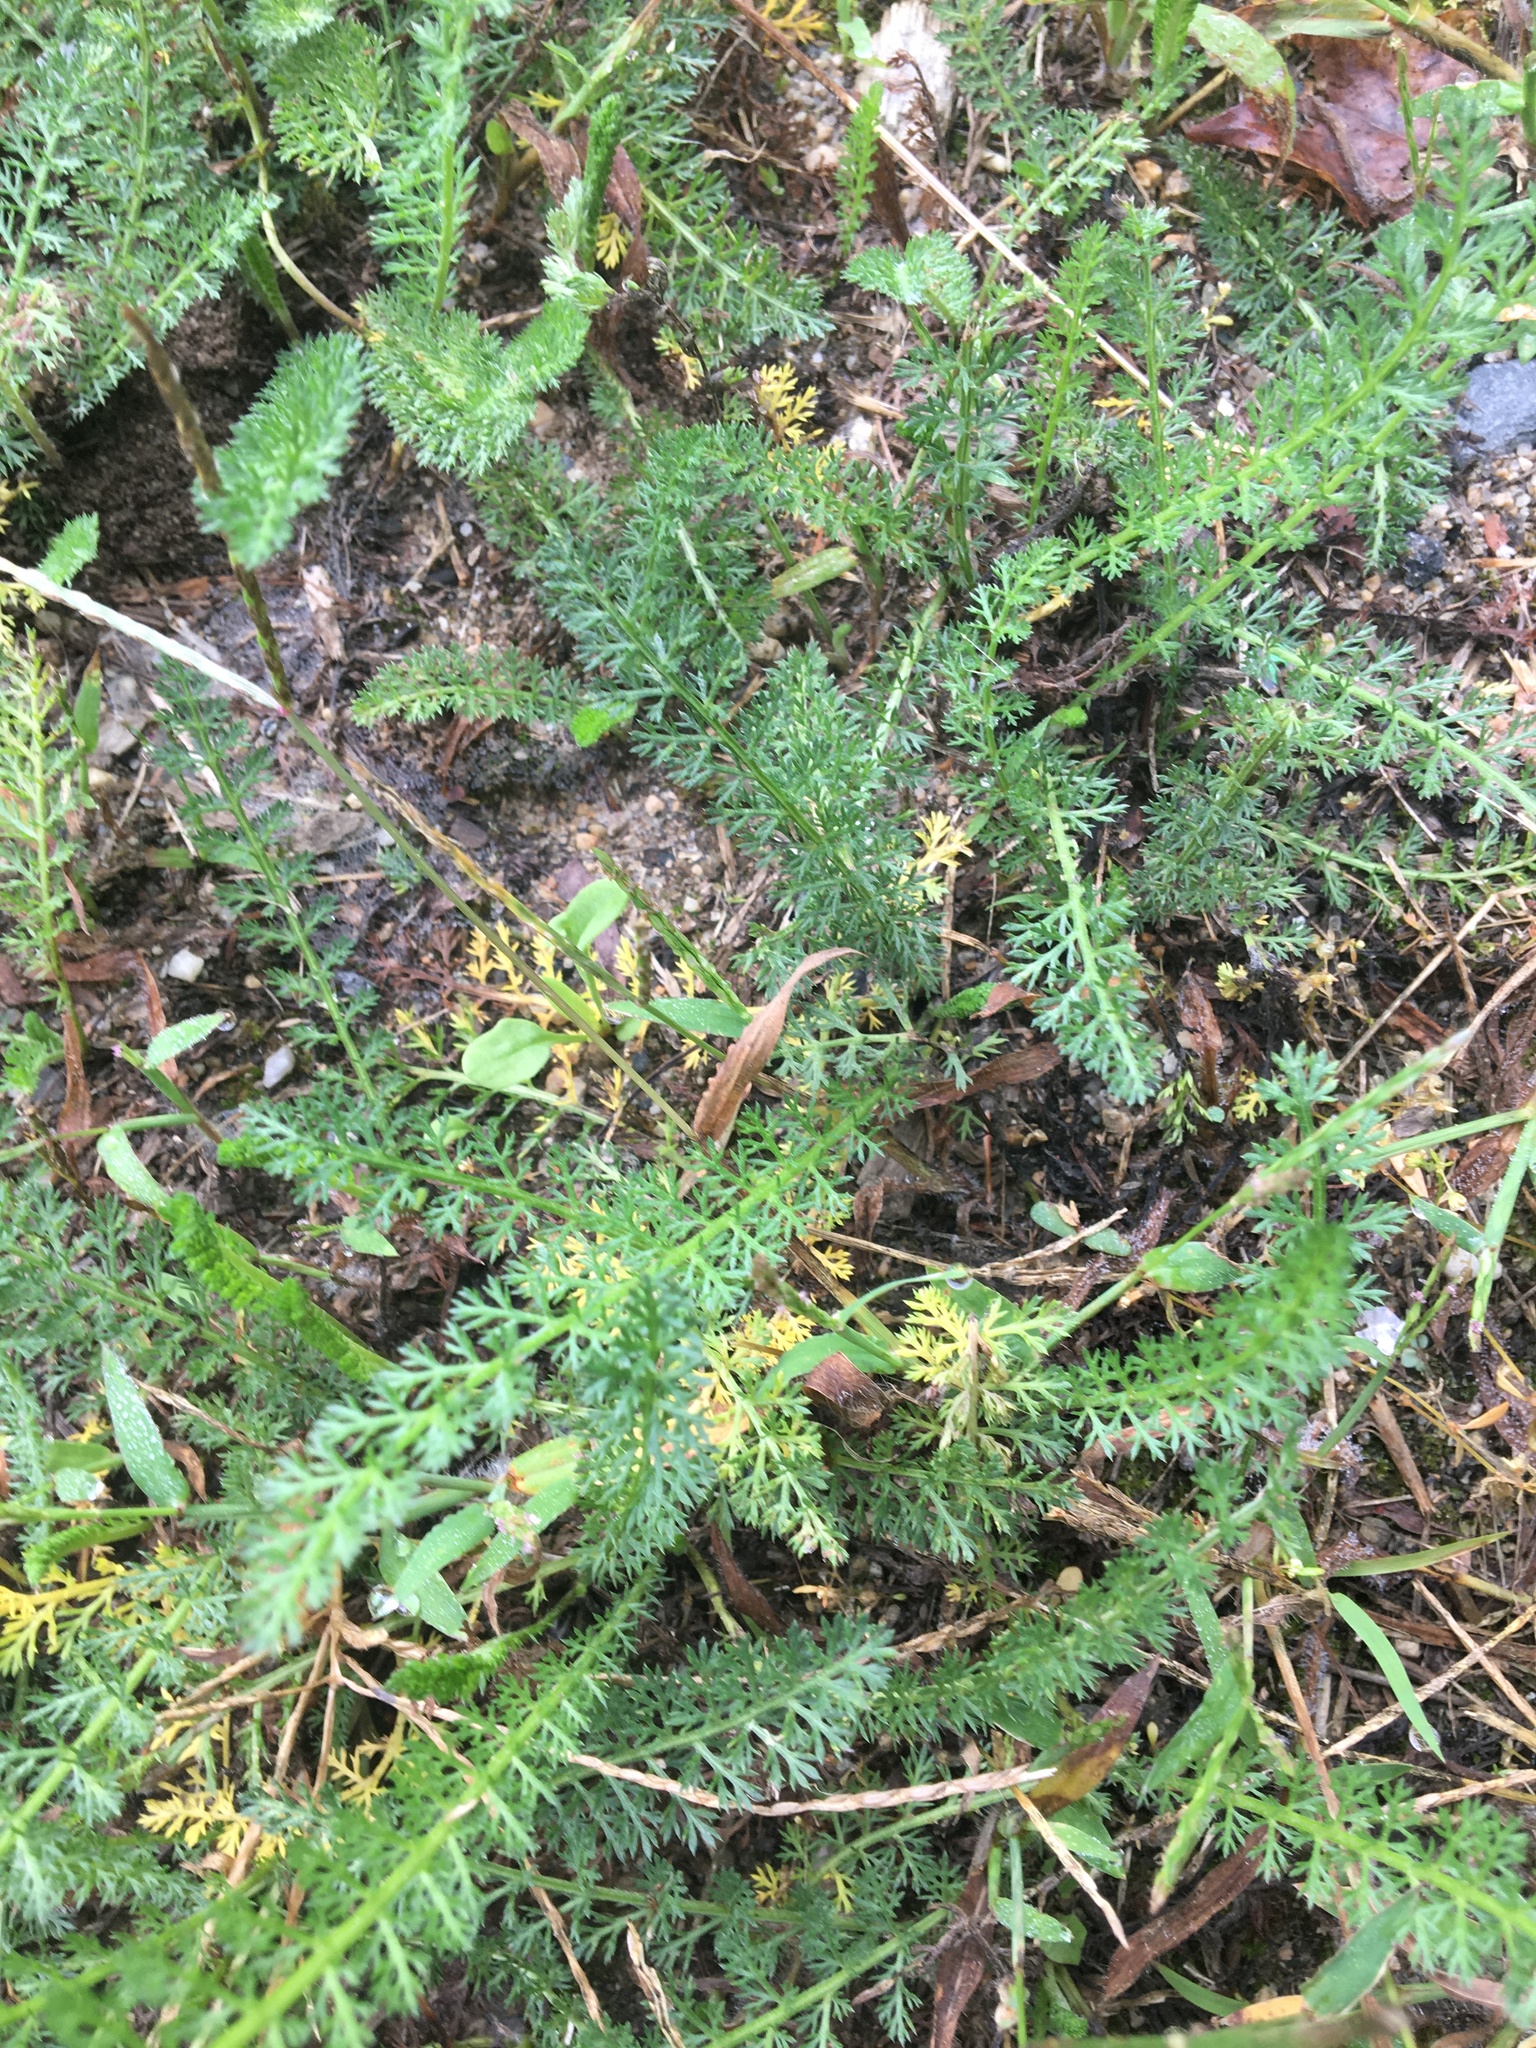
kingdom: Plantae
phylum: Tracheophyta
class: Magnoliopsida
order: Asterales
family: Asteraceae
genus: Achillea
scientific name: Achillea millefolium
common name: Yarrow
